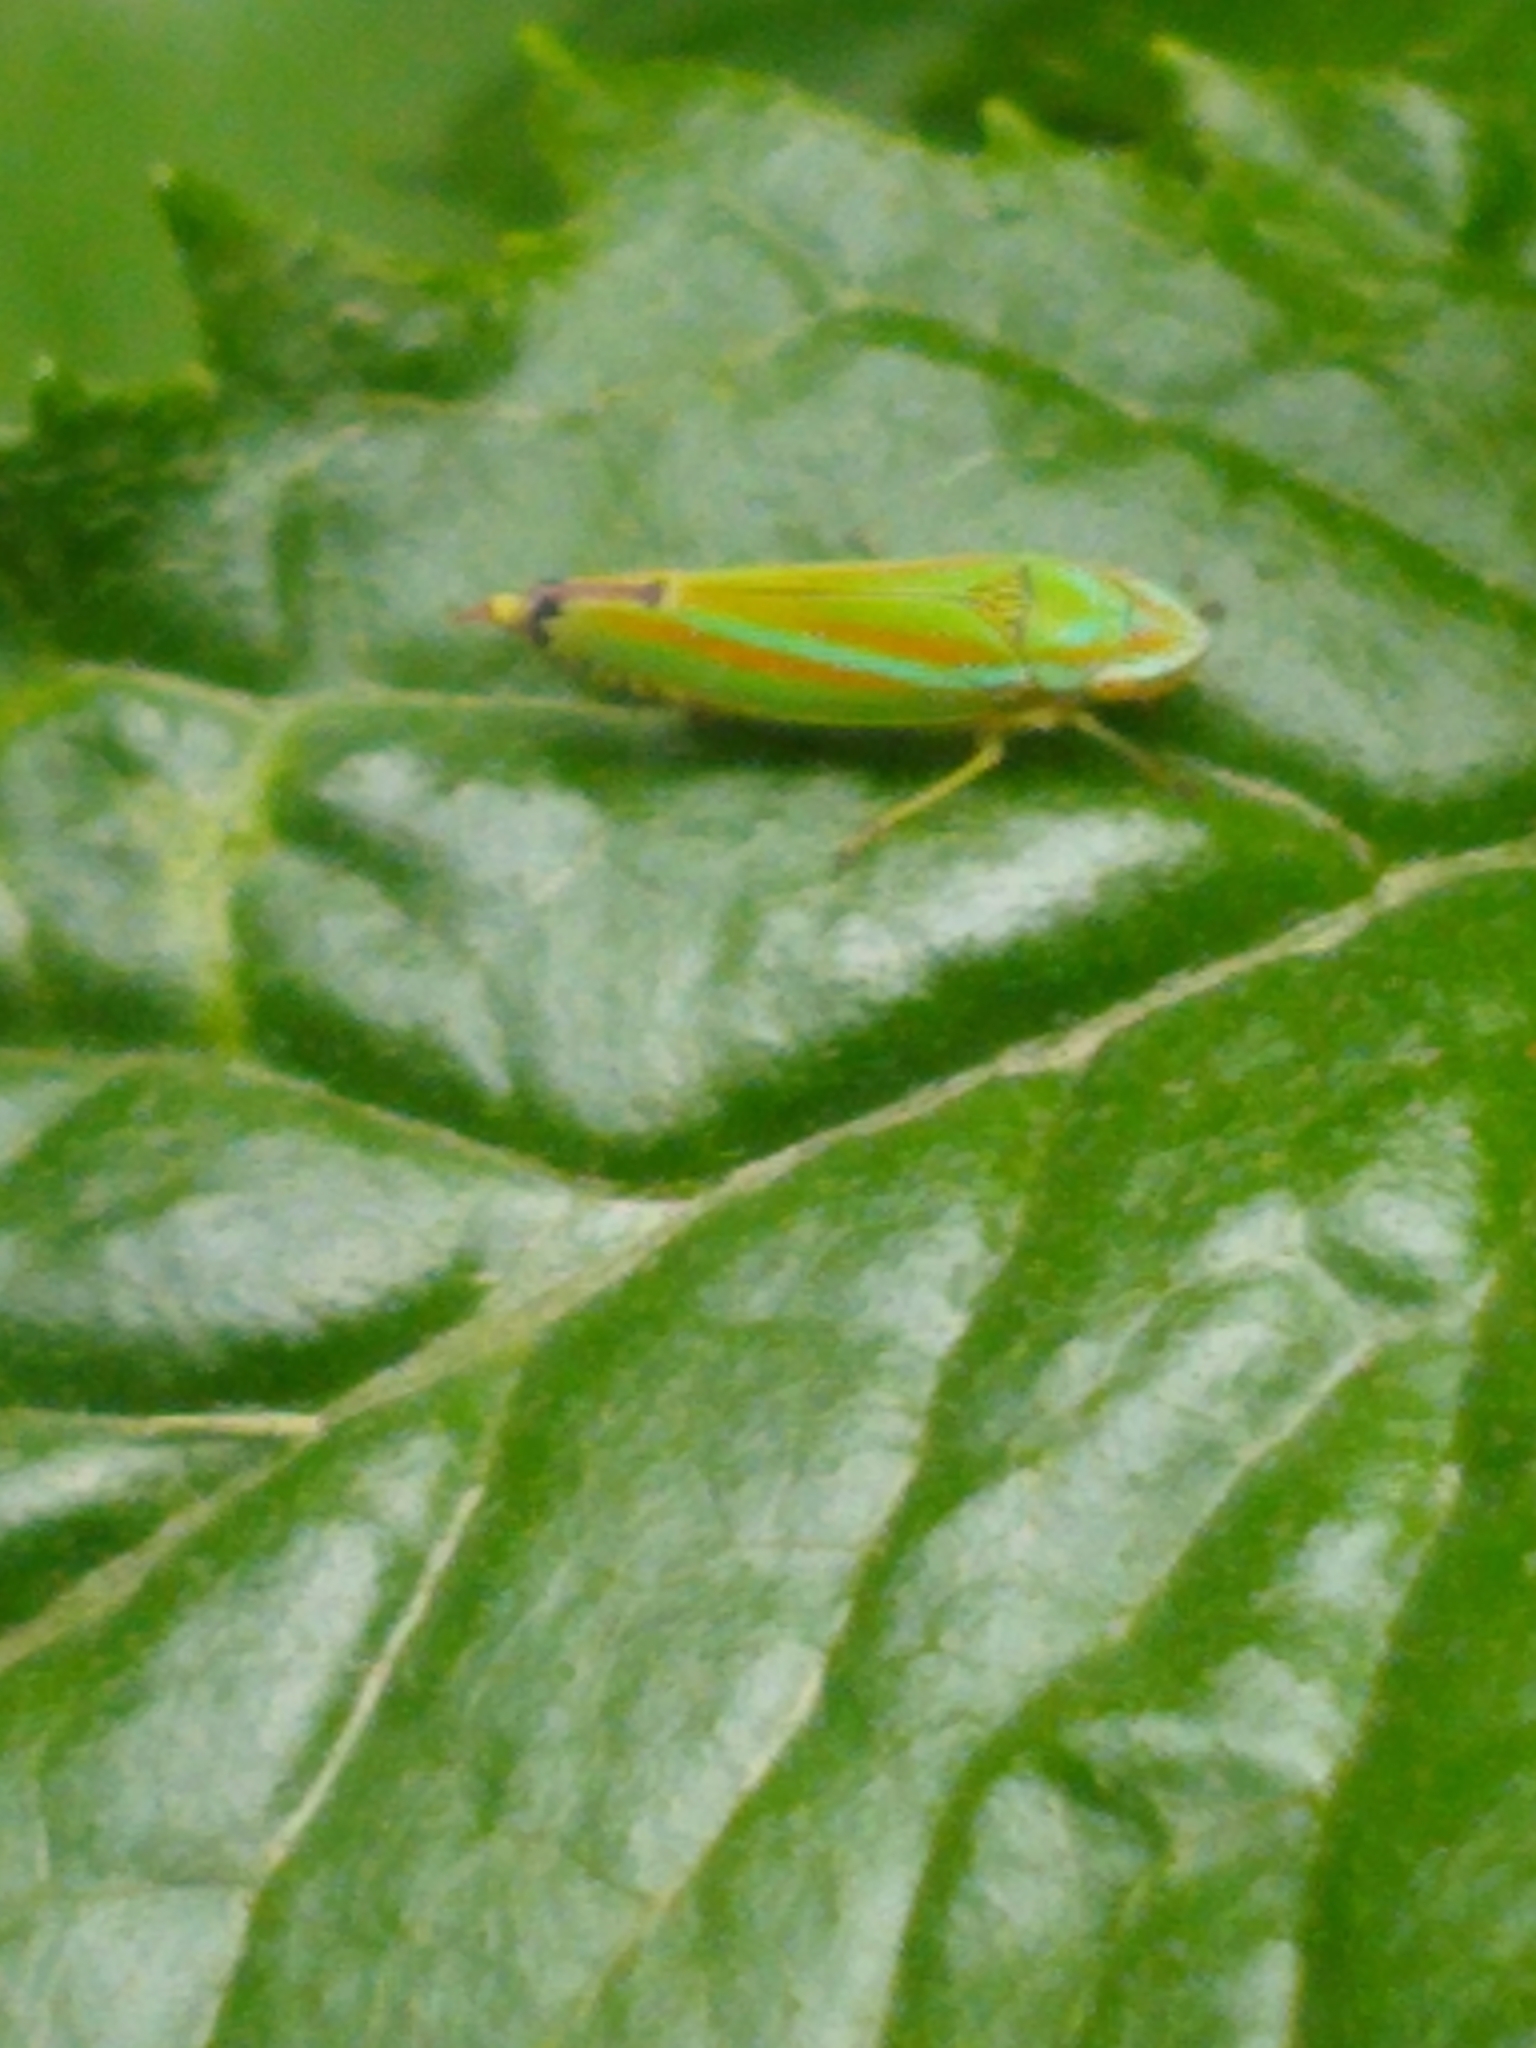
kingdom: Animalia
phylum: Arthropoda
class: Insecta
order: Hemiptera
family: Cicadellidae
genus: Graphocephala
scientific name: Graphocephala versuta
